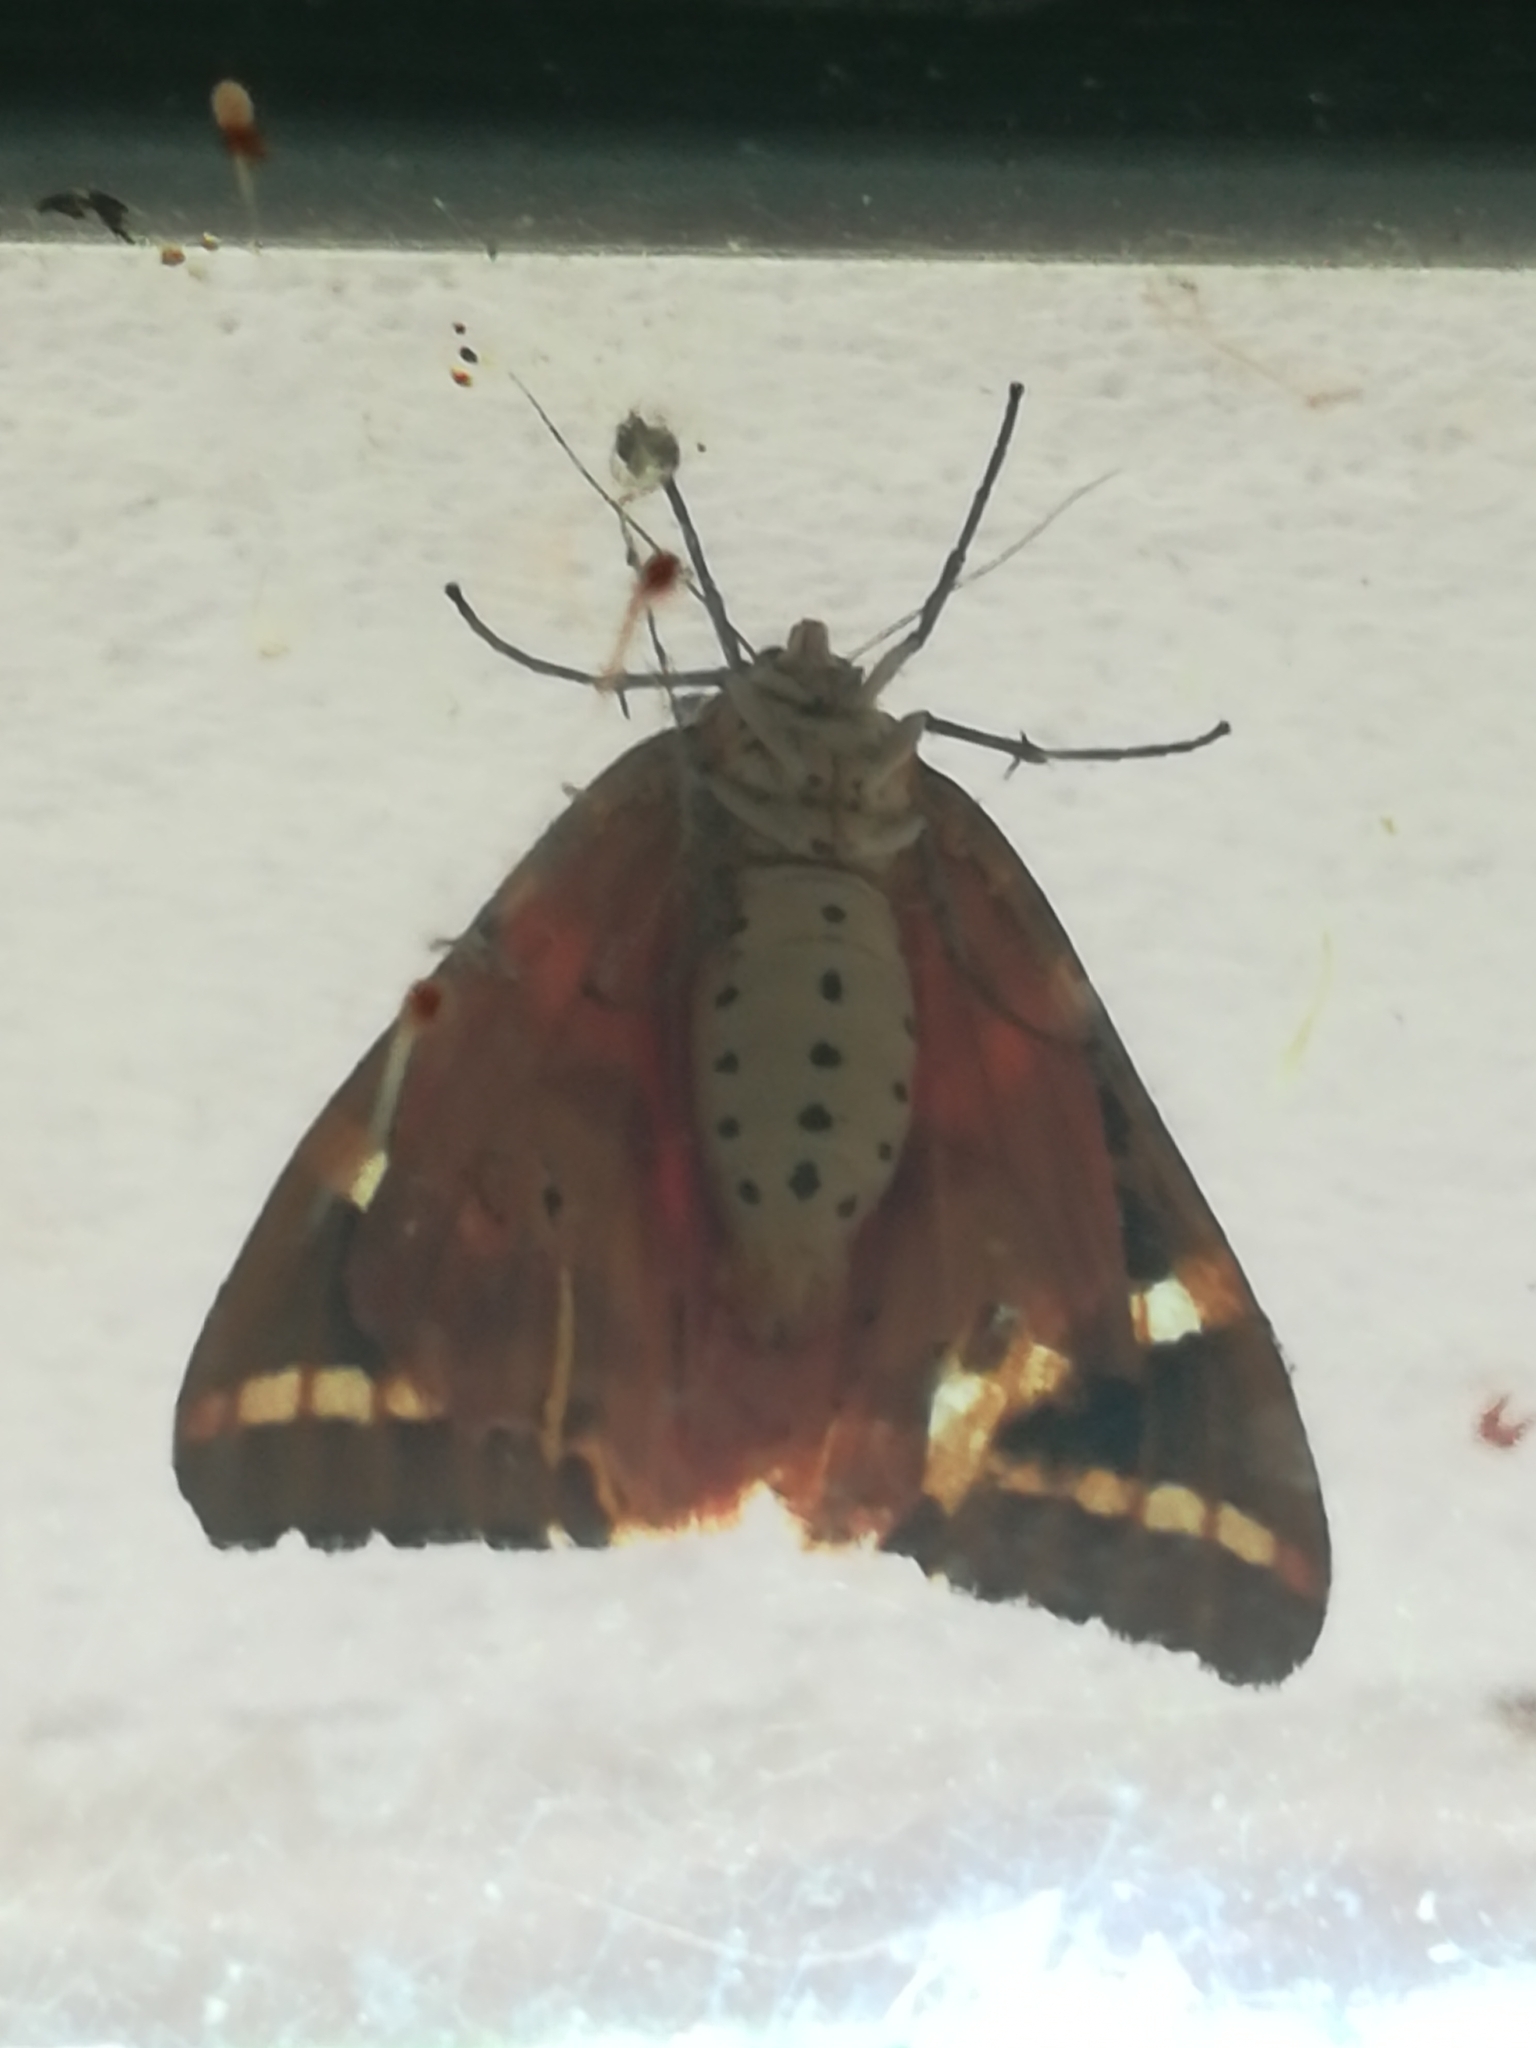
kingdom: Animalia
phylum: Arthropoda
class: Insecta
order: Lepidoptera
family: Erebidae
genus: Euplagia
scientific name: Euplagia quadripunctaria
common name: Jersey tiger
